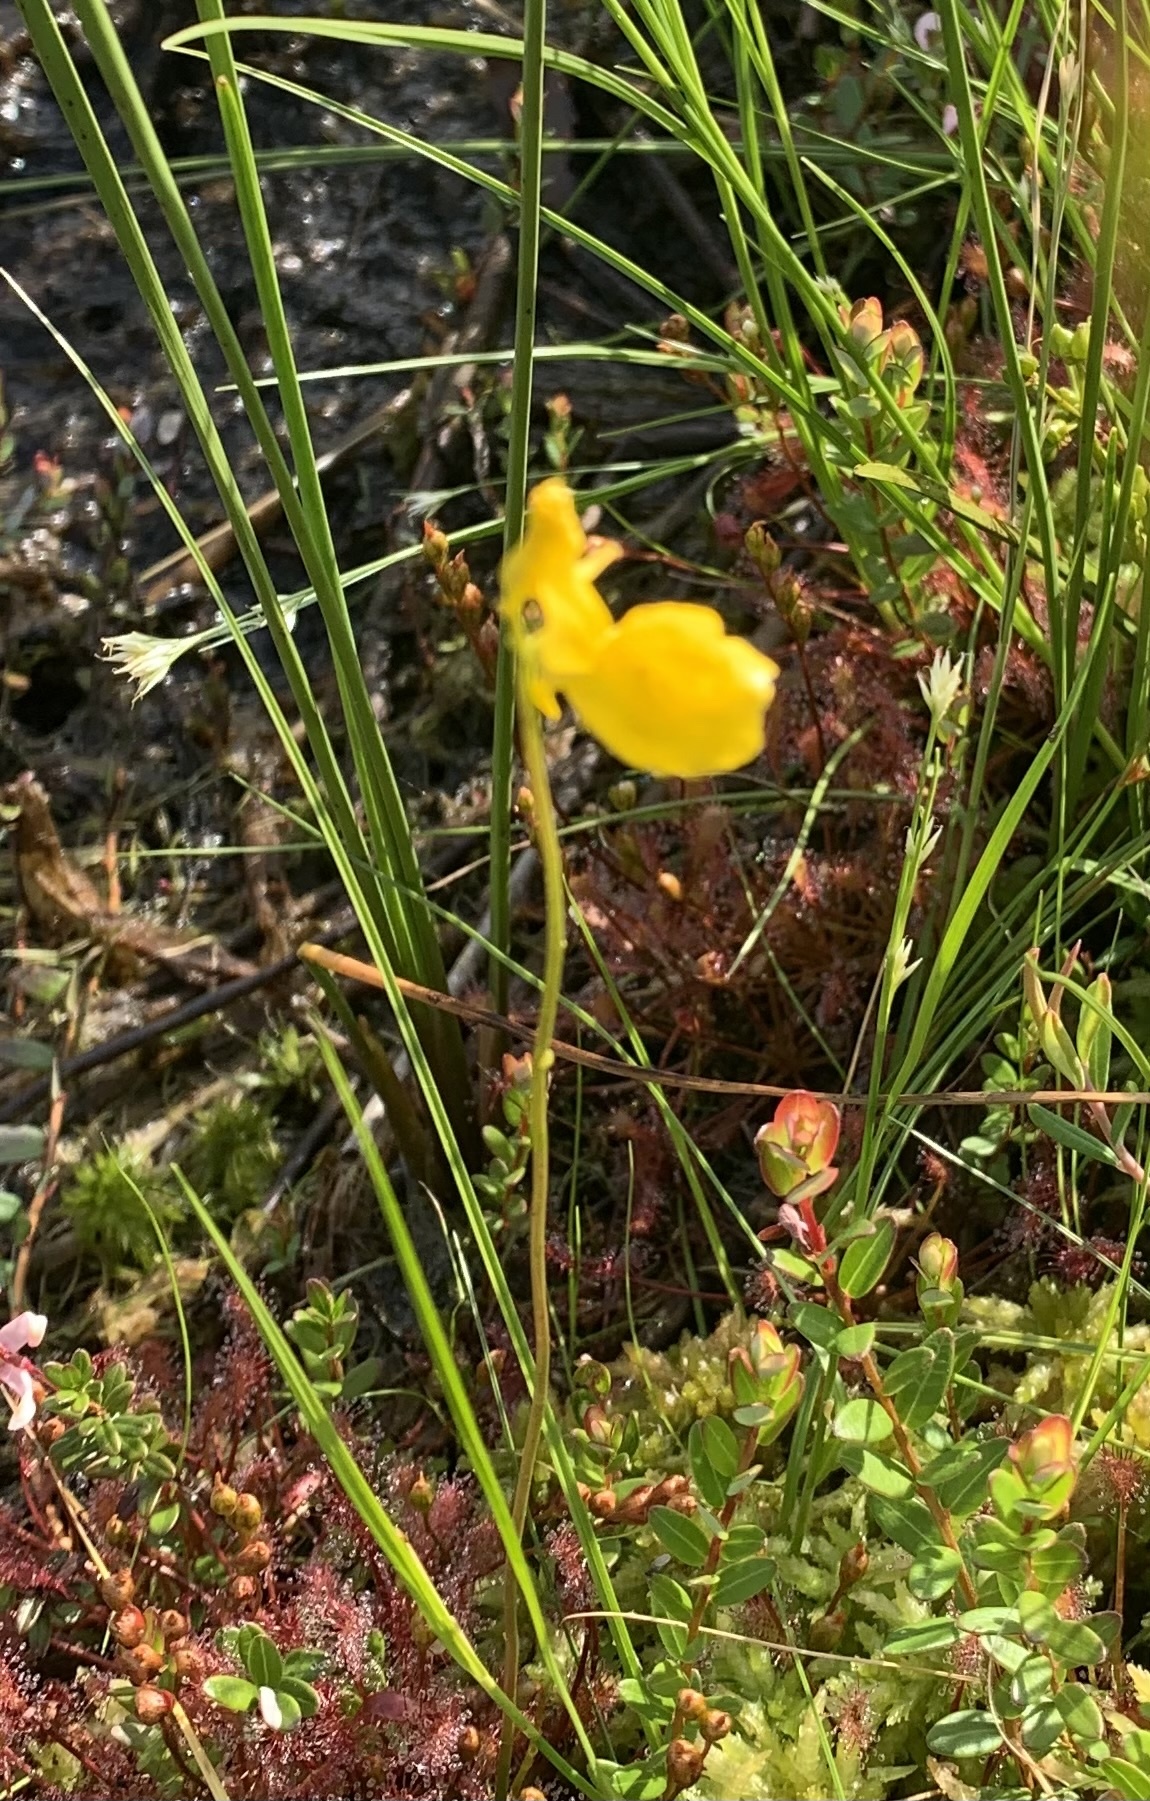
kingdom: Plantae
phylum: Tracheophyta
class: Magnoliopsida
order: Lamiales
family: Lentibulariaceae
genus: Utricularia
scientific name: Utricularia cornuta
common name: Horned bladderwort
